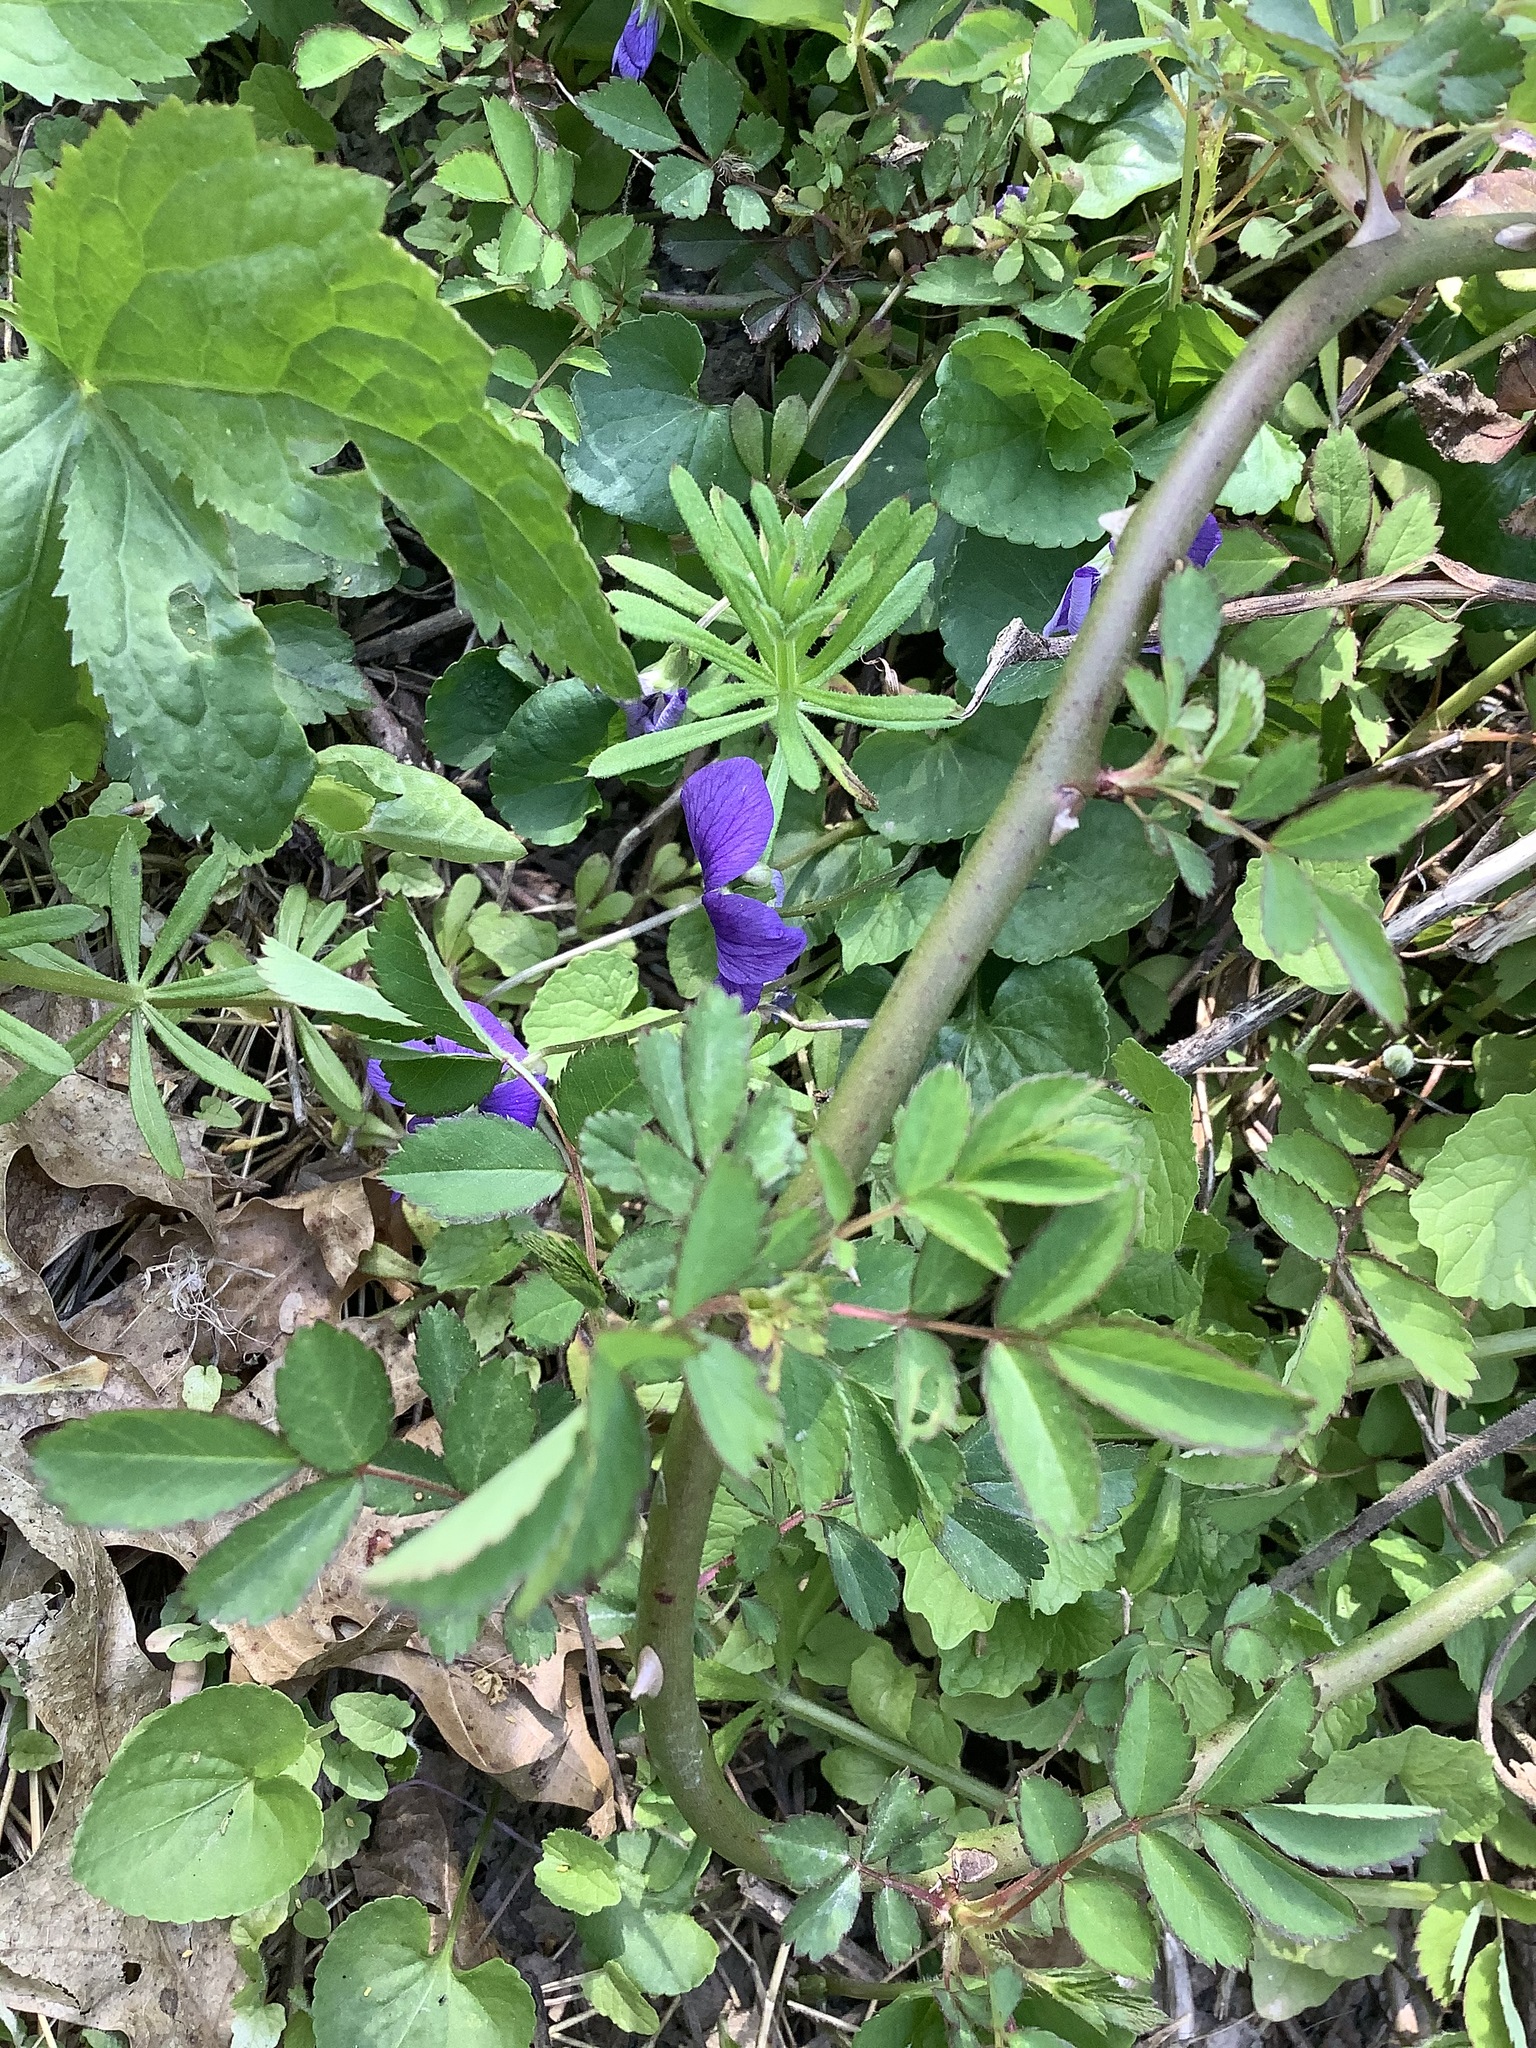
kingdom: Plantae
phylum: Tracheophyta
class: Magnoliopsida
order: Rosales
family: Rosaceae
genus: Rosa
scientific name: Rosa multiflora
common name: Multiflora rose
